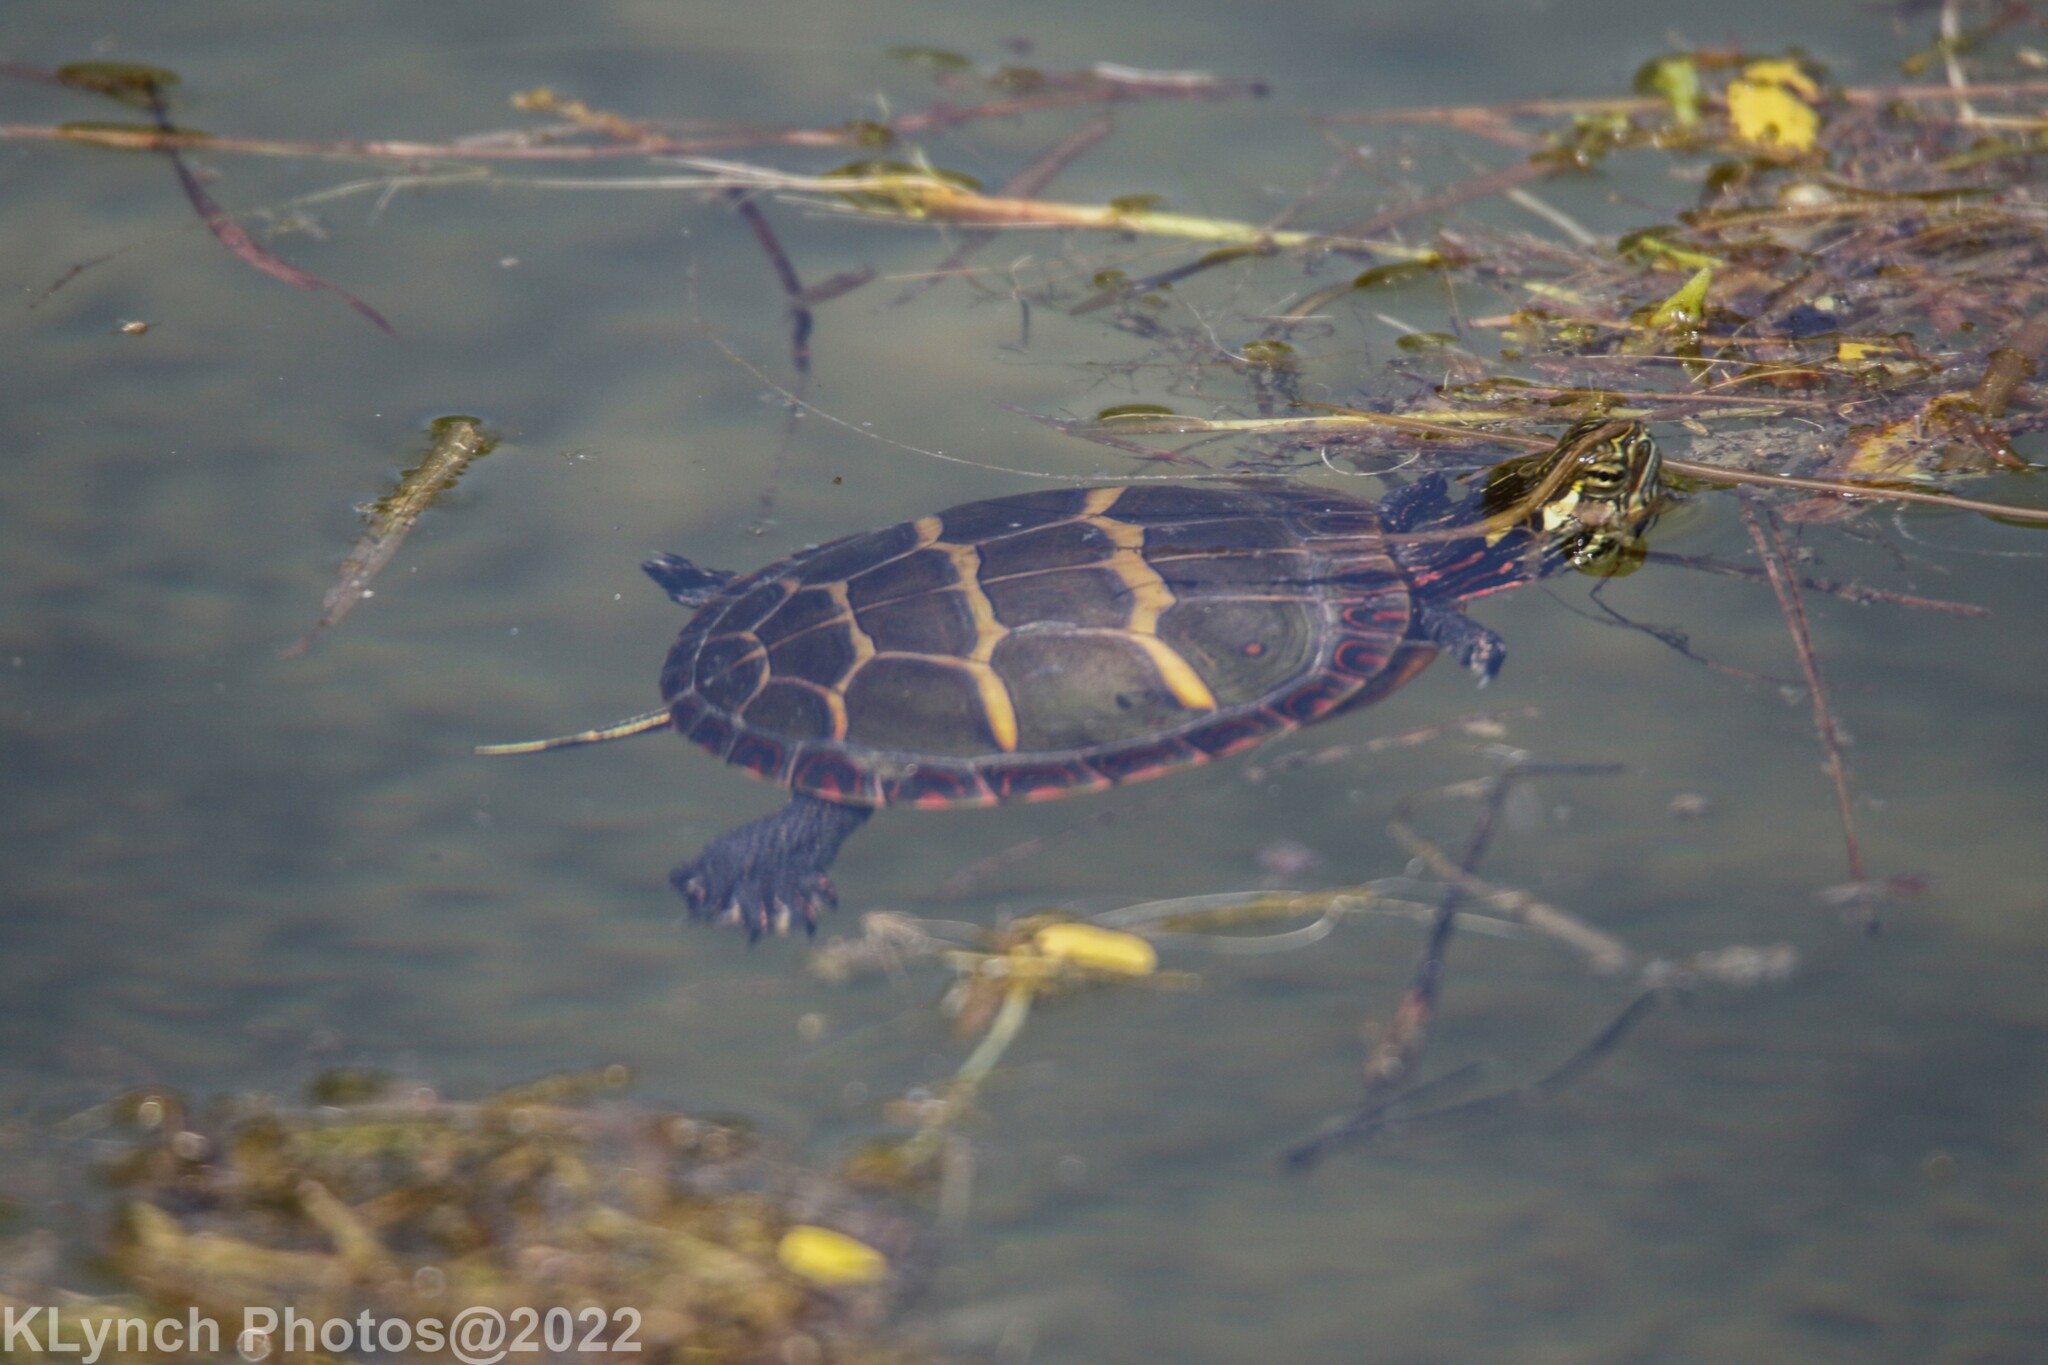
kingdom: Animalia
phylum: Chordata
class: Testudines
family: Emydidae
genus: Chrysemys
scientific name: Chrysemys picta
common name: Painted turtle
